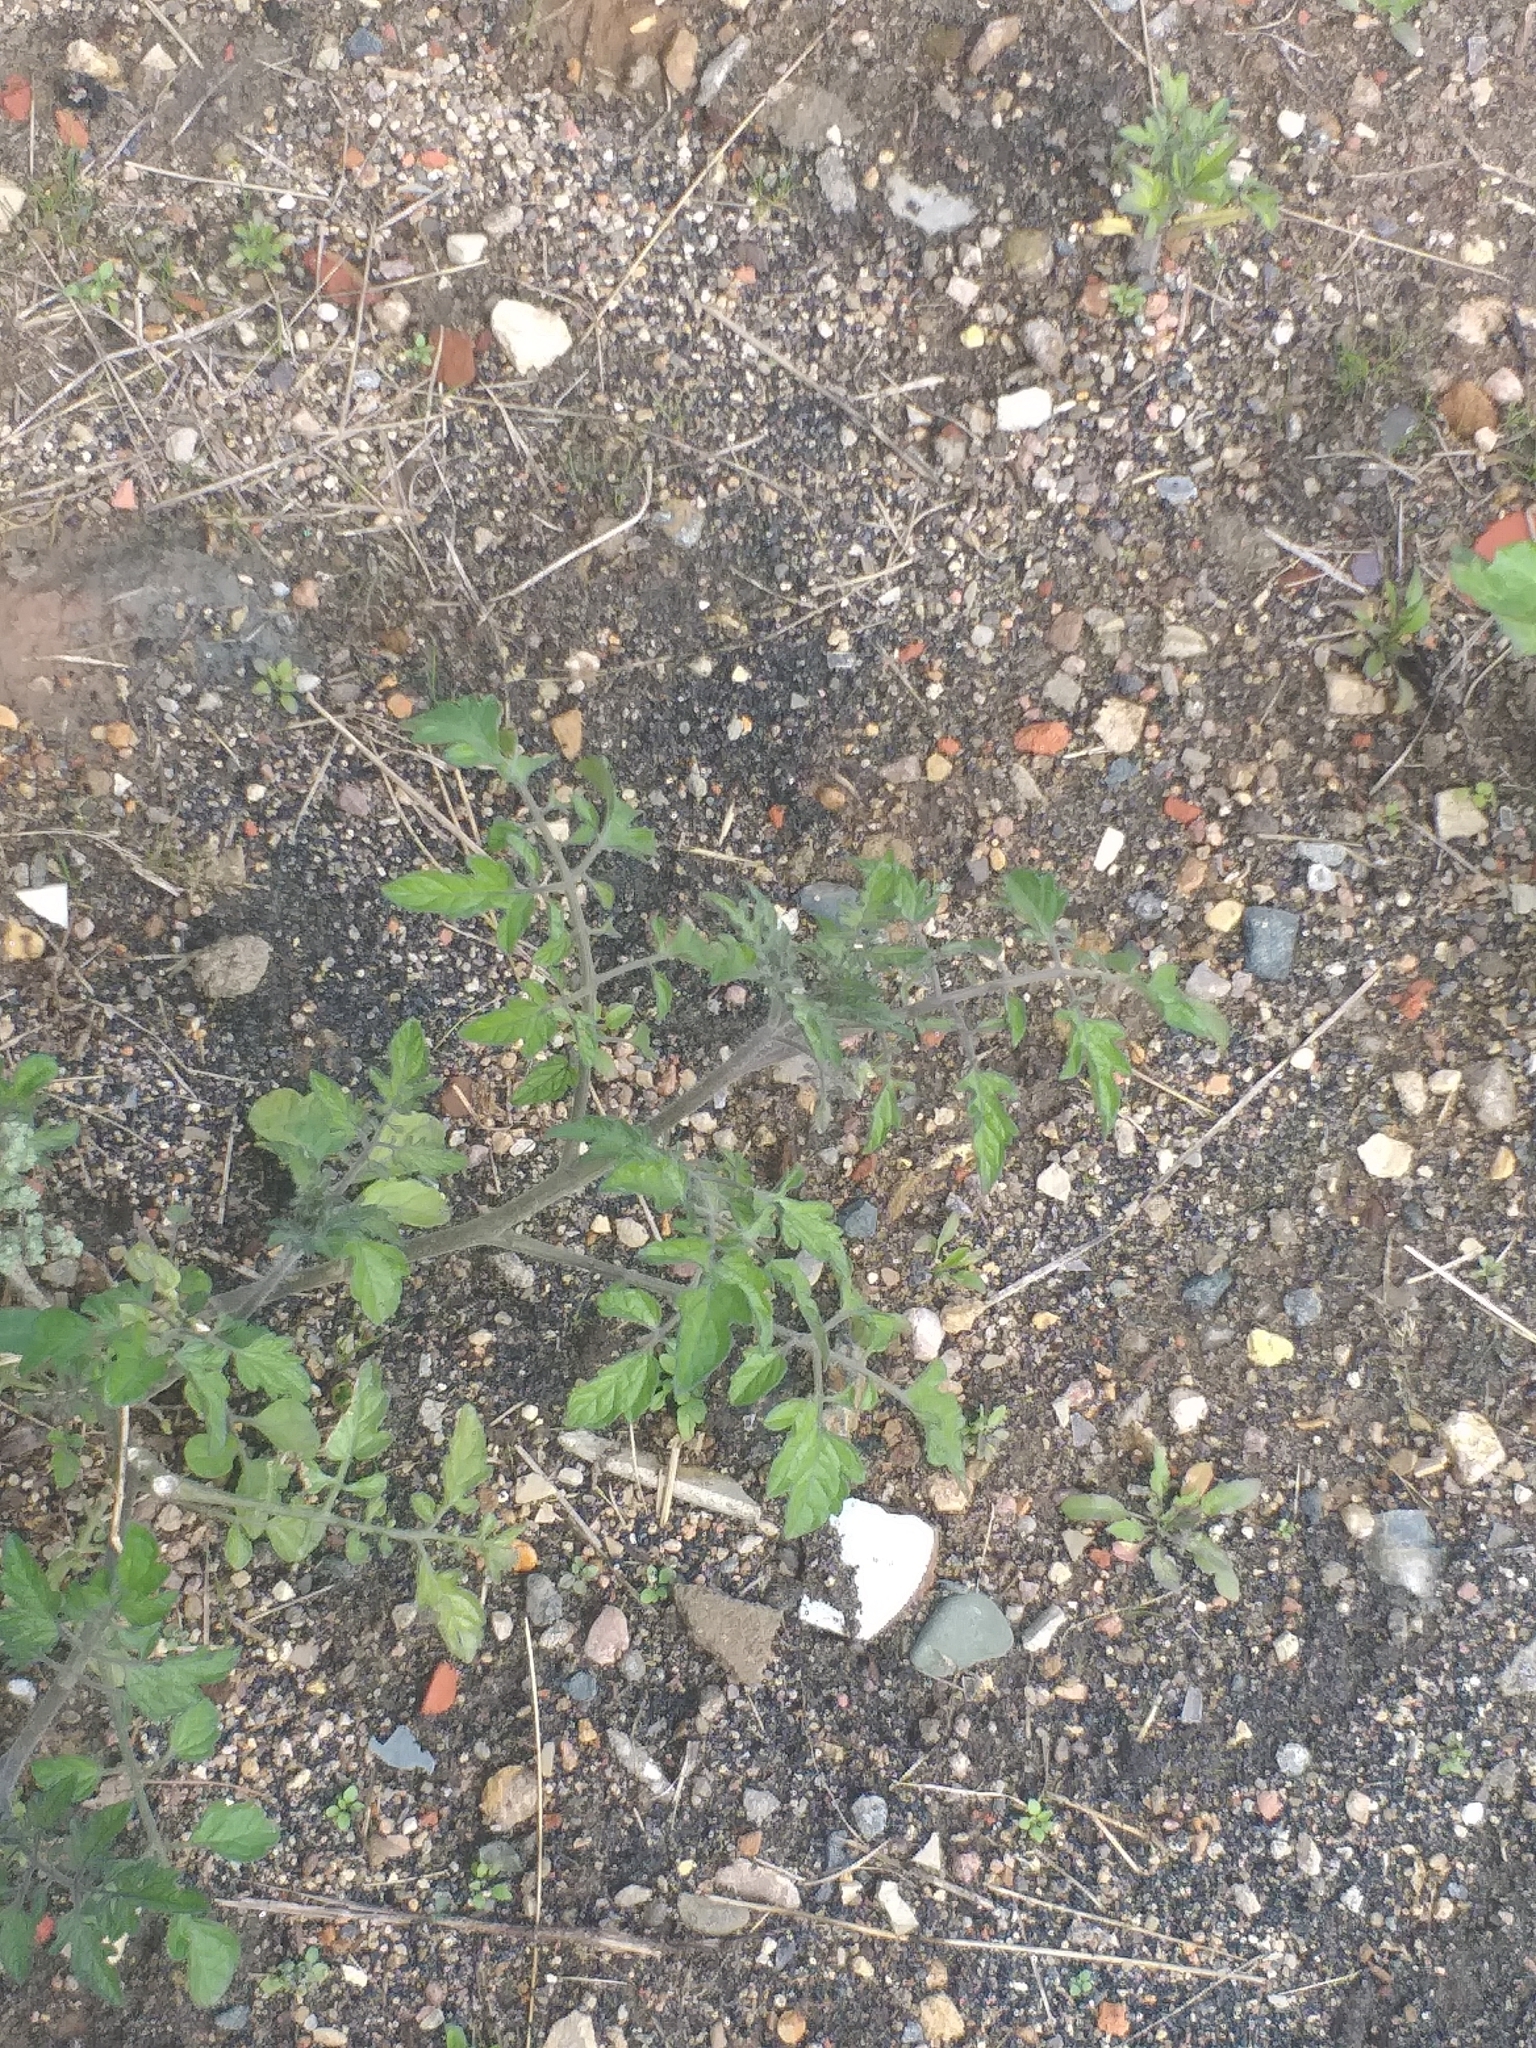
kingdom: Plantae
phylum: Tracheophyta
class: Magnoliopsida
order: Solanales
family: Solanaceae
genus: Solanum
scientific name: Solanum lycopersicum
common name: Garden tomato
